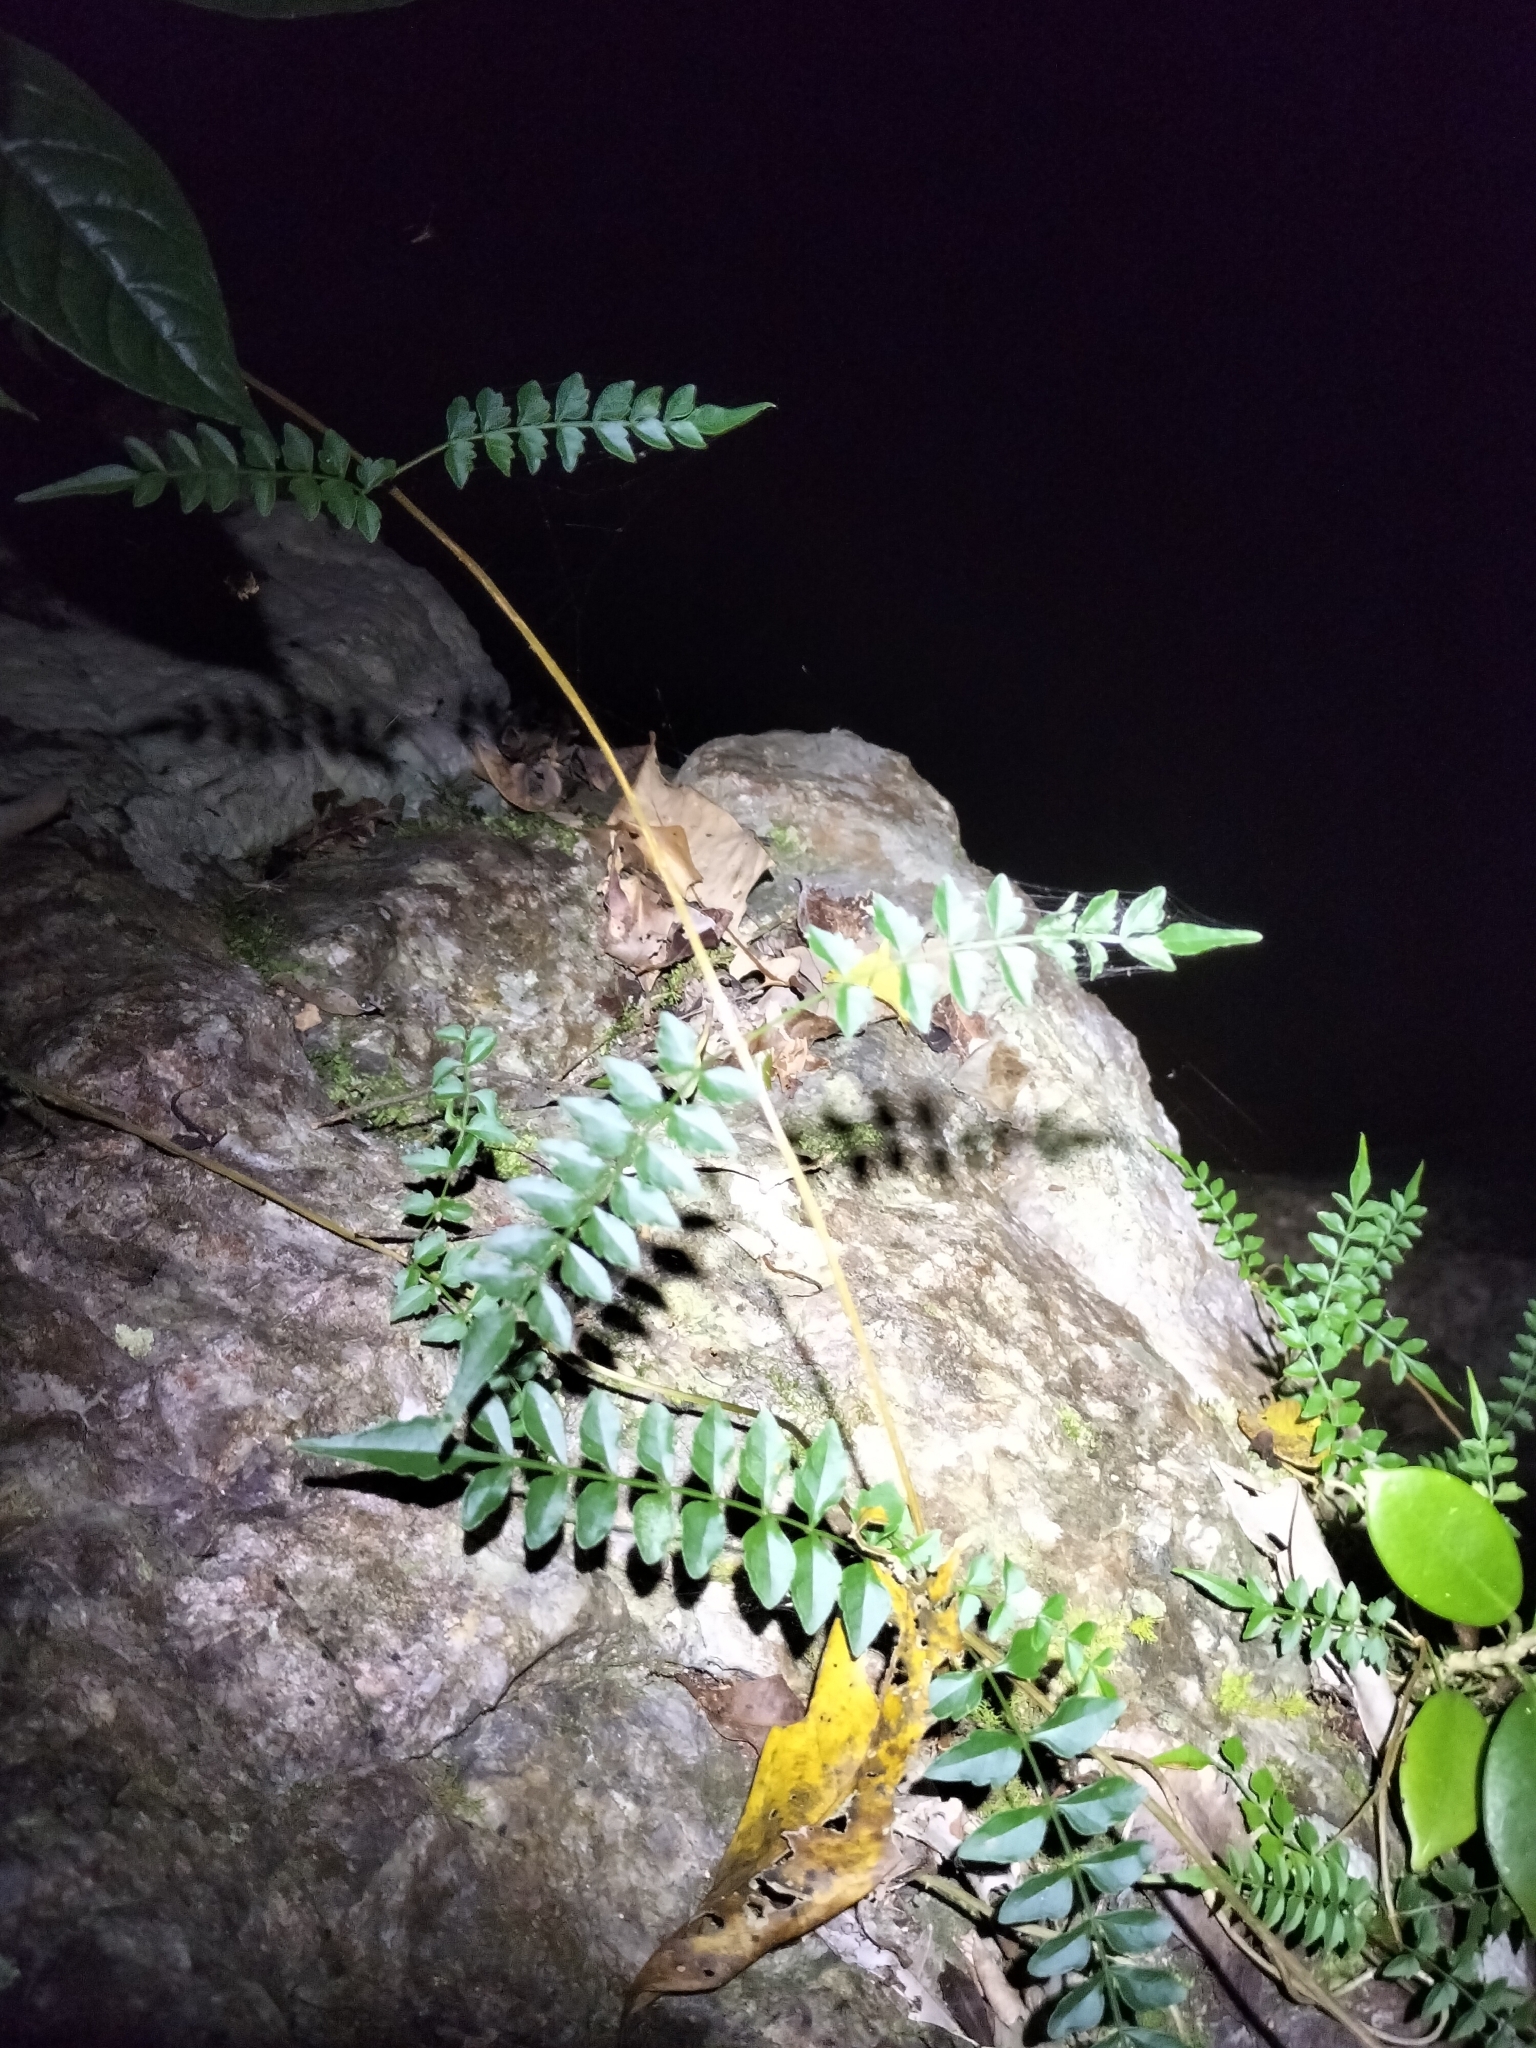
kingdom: Plantae
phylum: Tracheophyta
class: Magnoliopsida
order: Lamiales
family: Bignoniaceae
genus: Pandorea
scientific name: Pandorea pandorana
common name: Wonga-wonga-vine
